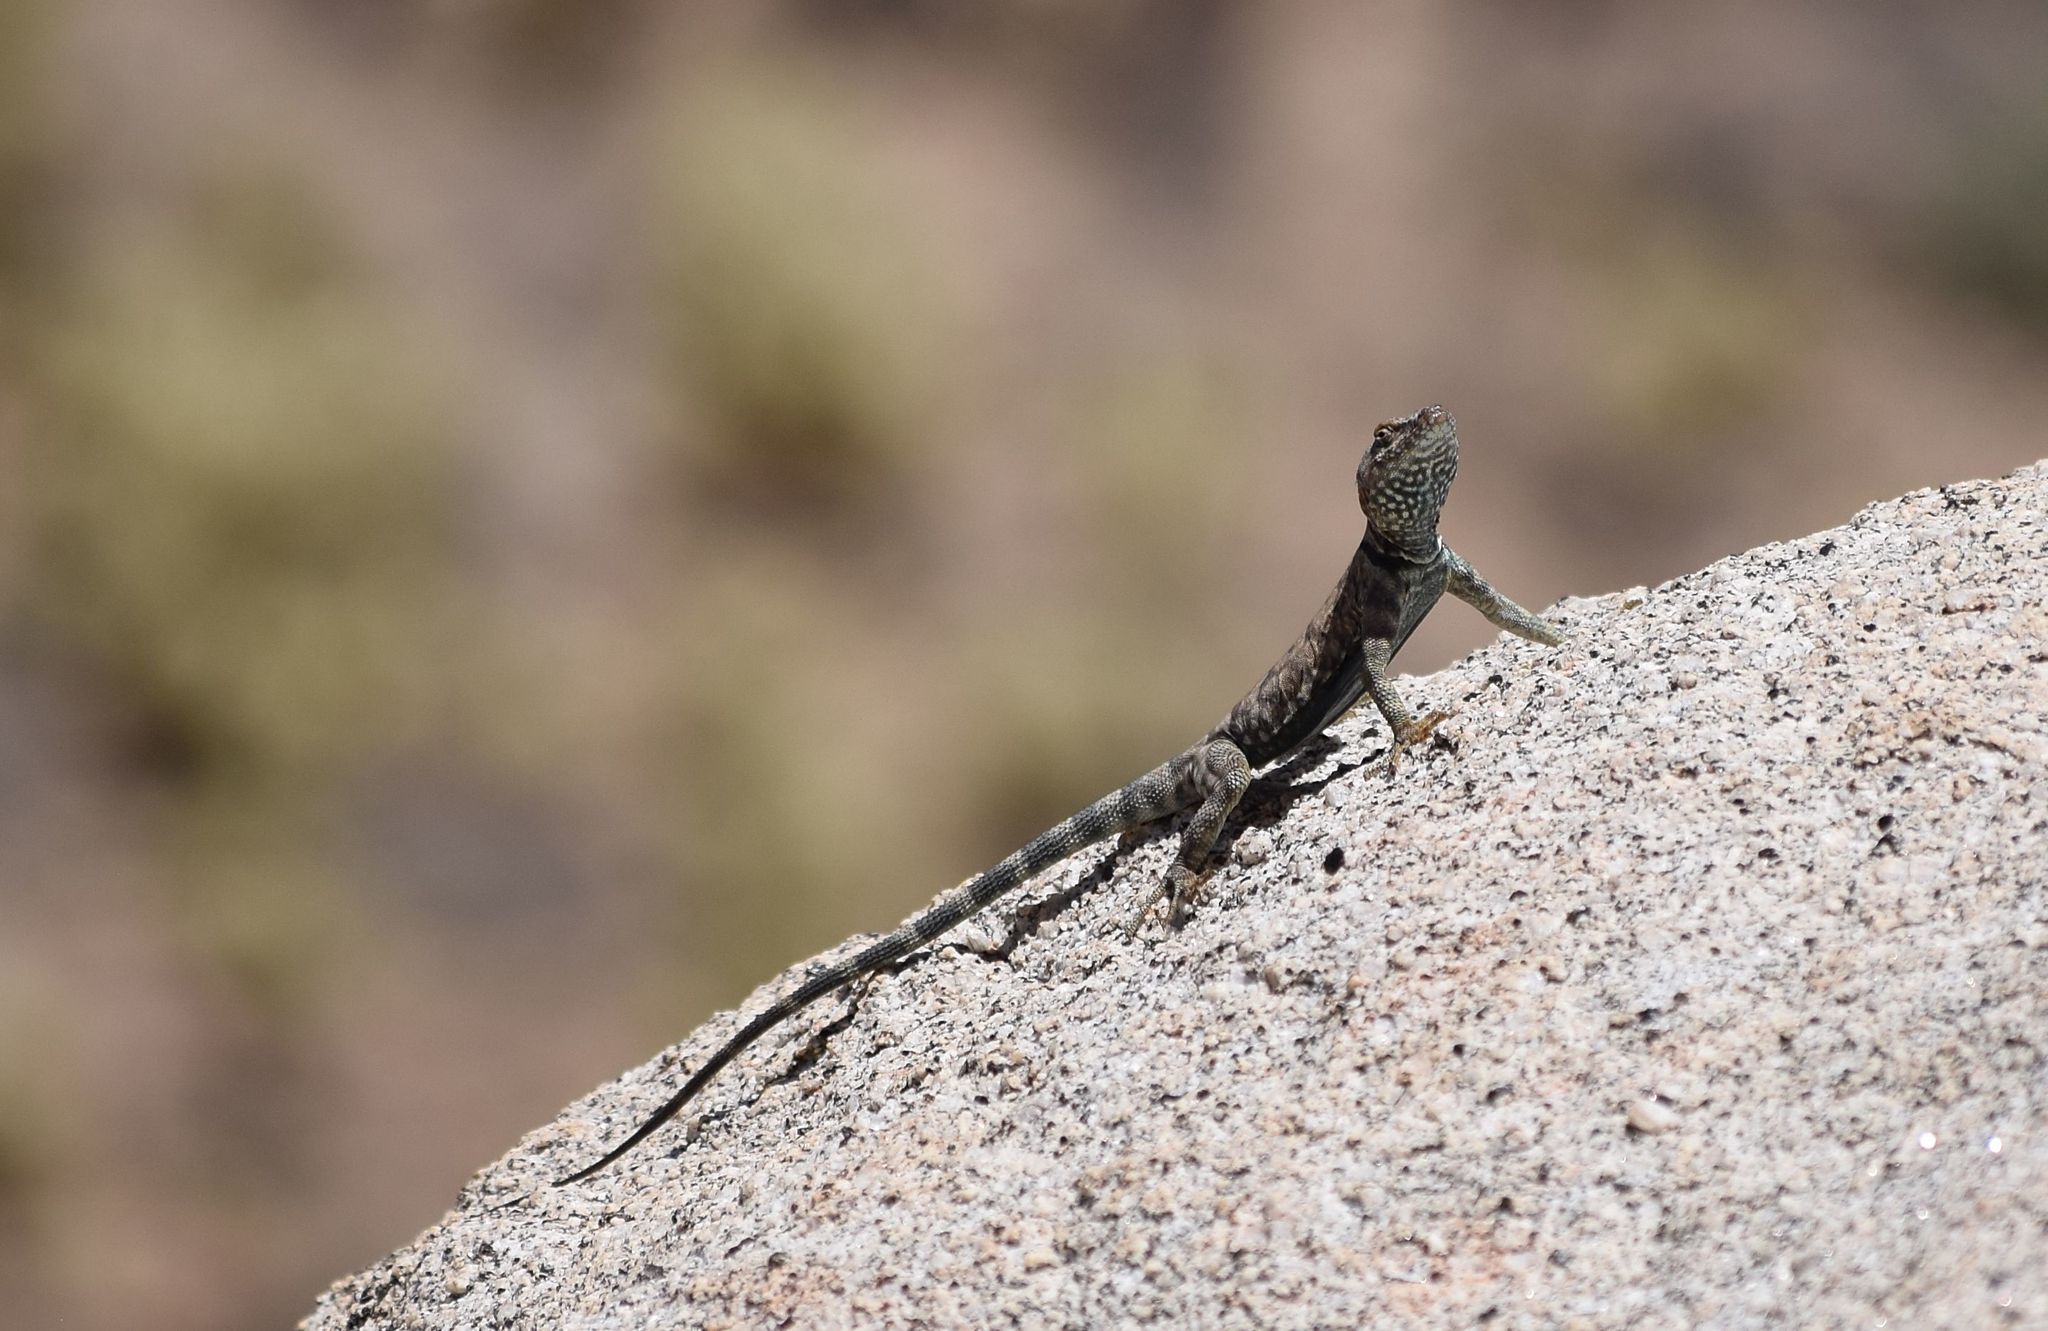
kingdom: Animalia
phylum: Chordata
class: Squamata
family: Phrynosomatidae
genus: Petrosaurus
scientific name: Petrosaurus mearnsi
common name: Banded rock lizard
